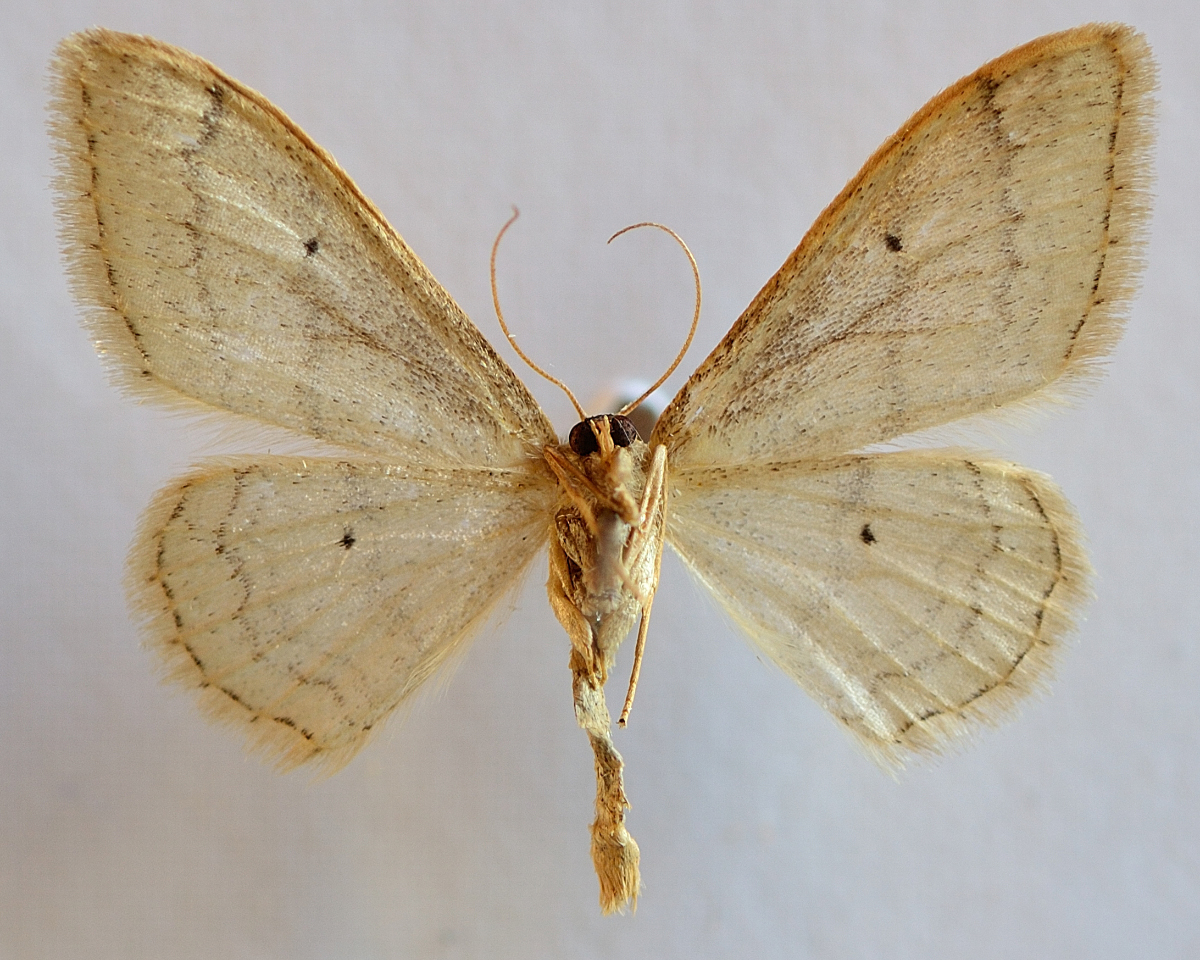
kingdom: Animalia
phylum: Arthropoda
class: Insecta
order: Lepidoptera
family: Geometridae
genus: Idaea
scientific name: Idaea straminata
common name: Plain wave
